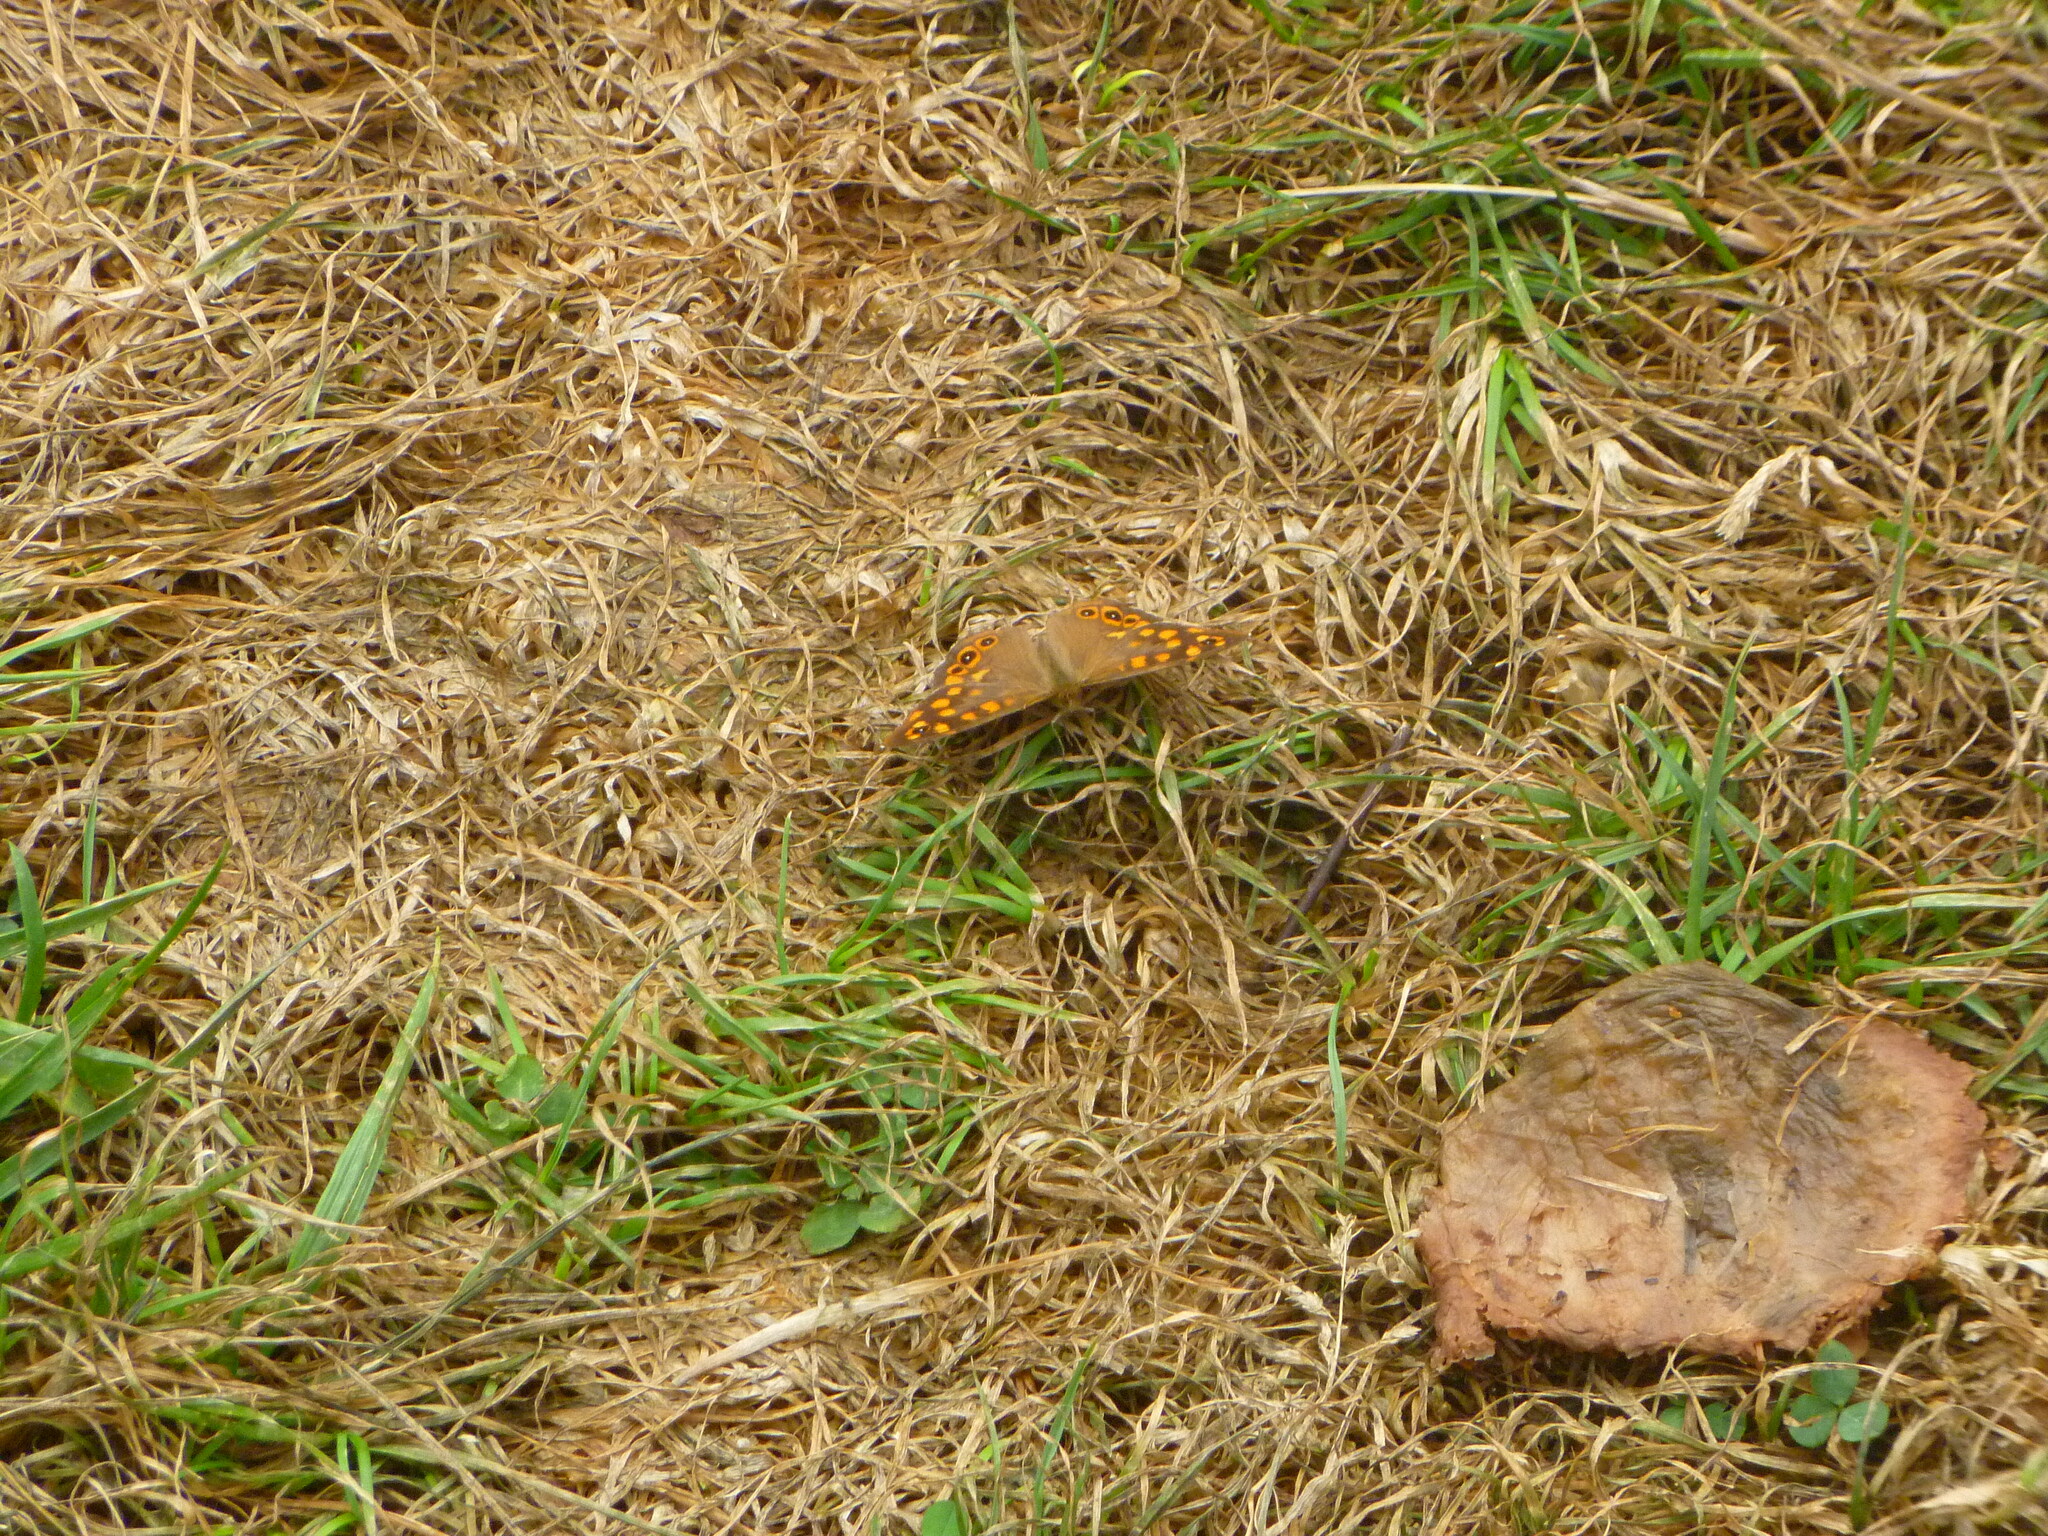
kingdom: Animalia
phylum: Arthropoda
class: Insecta
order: Lepidoptera
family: Nymphalidae
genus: Pararge
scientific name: Pararge aegeria
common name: Speckled wood
